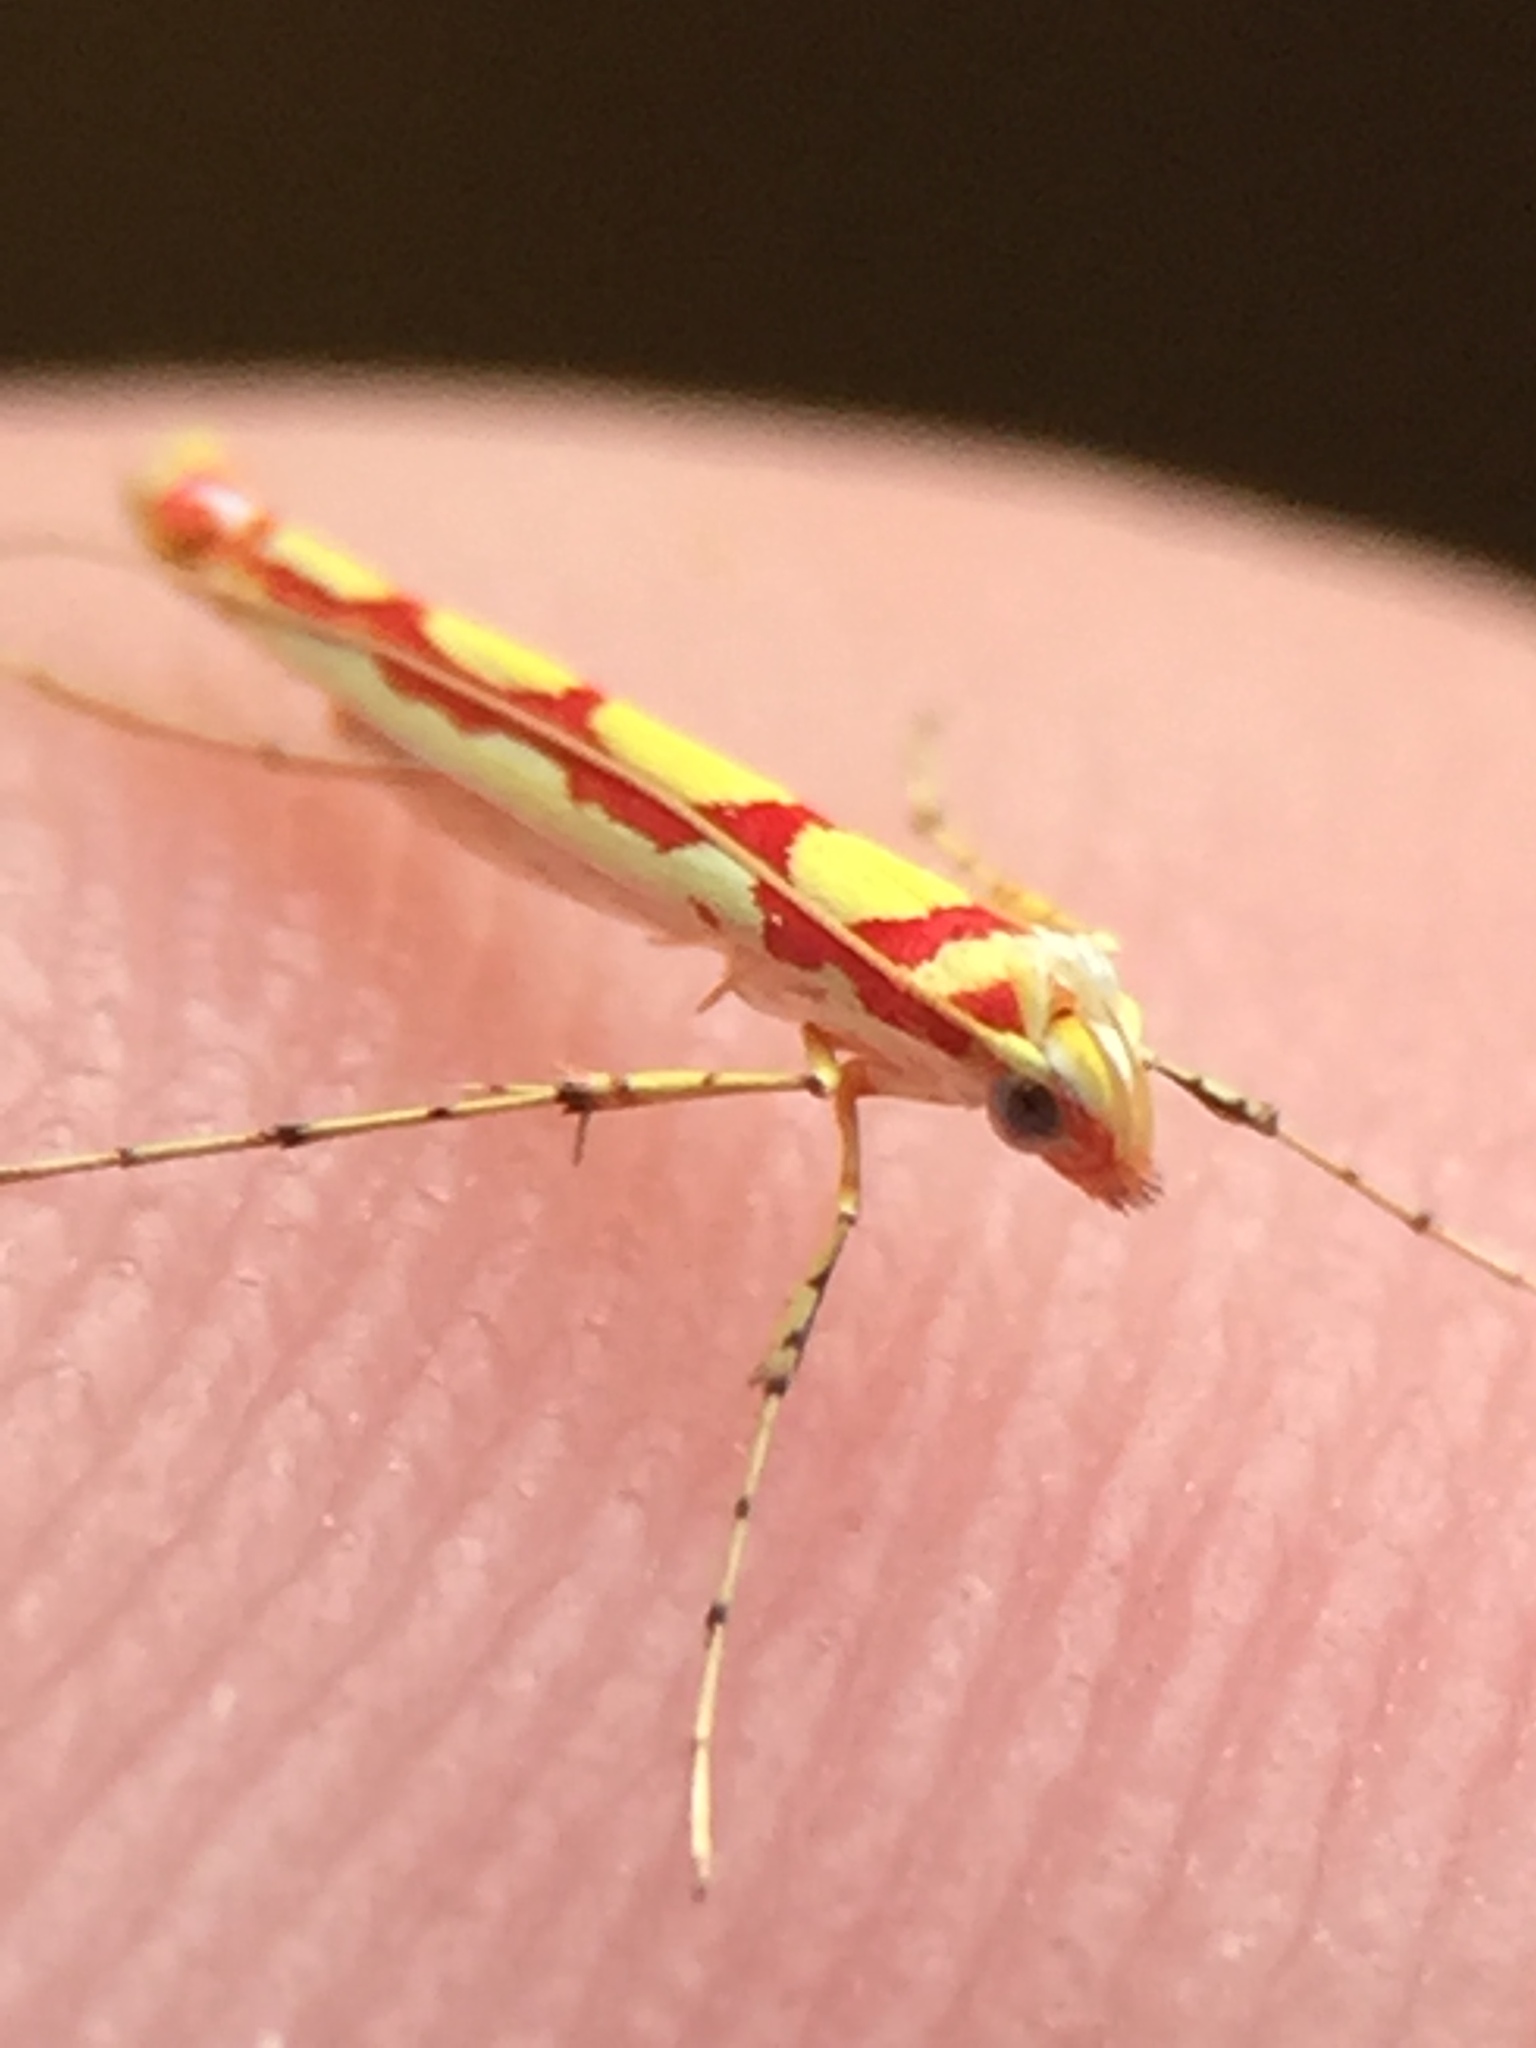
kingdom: Animalia
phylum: Arthropoda
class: Insecta
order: Lepidoptera
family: Gracillariidae
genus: Macarostola
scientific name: Macarostola miniella
